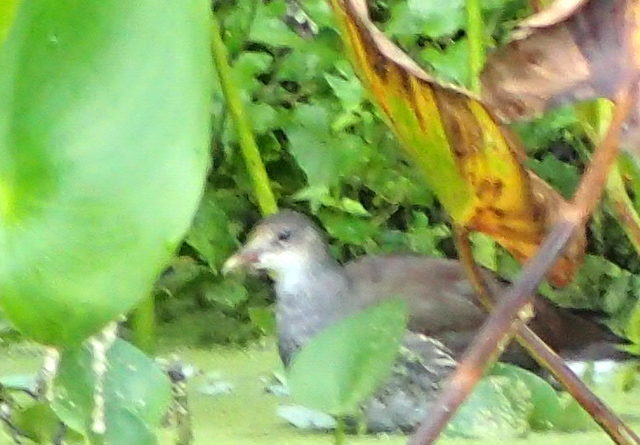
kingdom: Animalia
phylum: Chordata
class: Aves
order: Gruiformes
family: Rallidae
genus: Gallinula
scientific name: Gallinula chloropus
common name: Common moorhen
